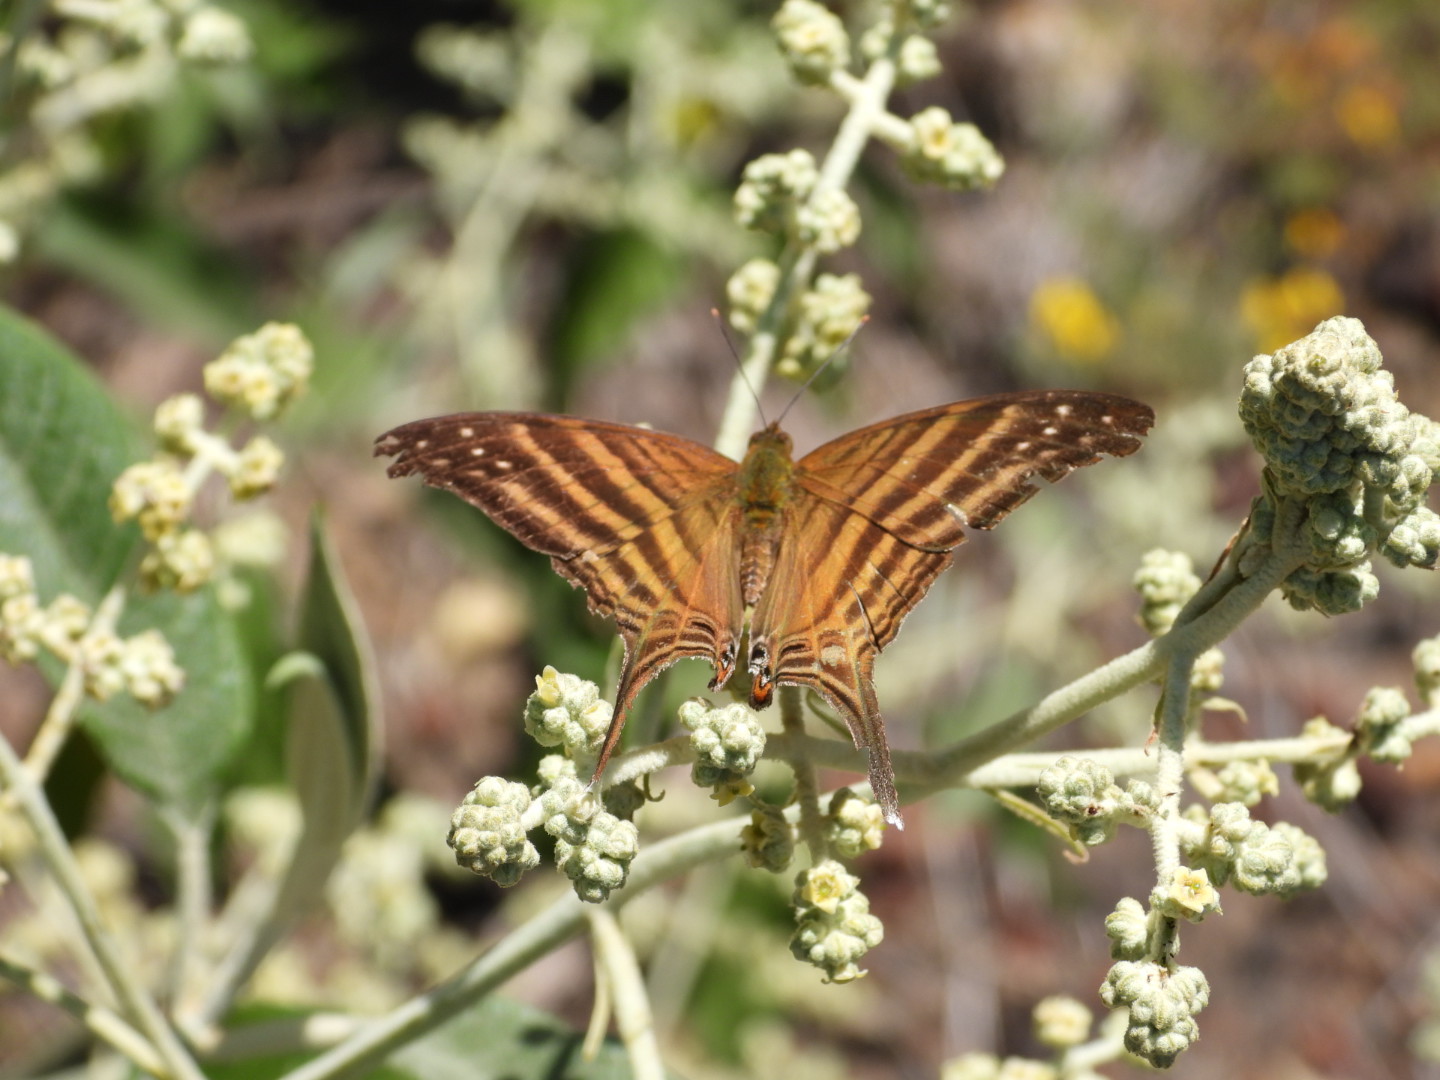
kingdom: Animalia
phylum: Arthropoda
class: Insecta
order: Lepidoptera
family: Nymphalidae
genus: Marpesia
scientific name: Marpesia chiron
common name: Many-banded daggerwing
